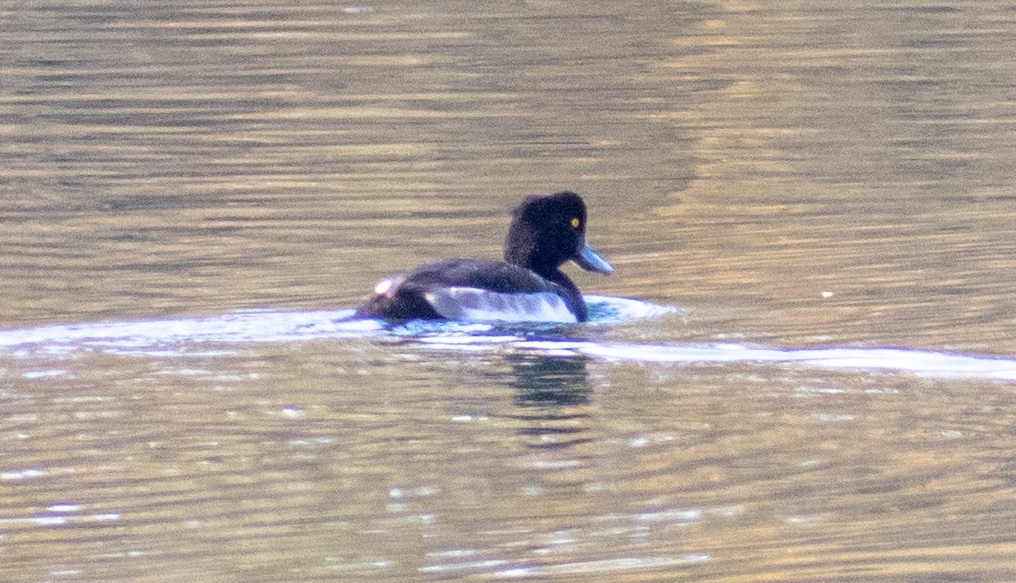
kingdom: Animalia
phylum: Chordata
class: Aves
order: Anseriformes
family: Anatidae
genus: Aythya
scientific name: Aythya fuligula
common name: Tufted duck
